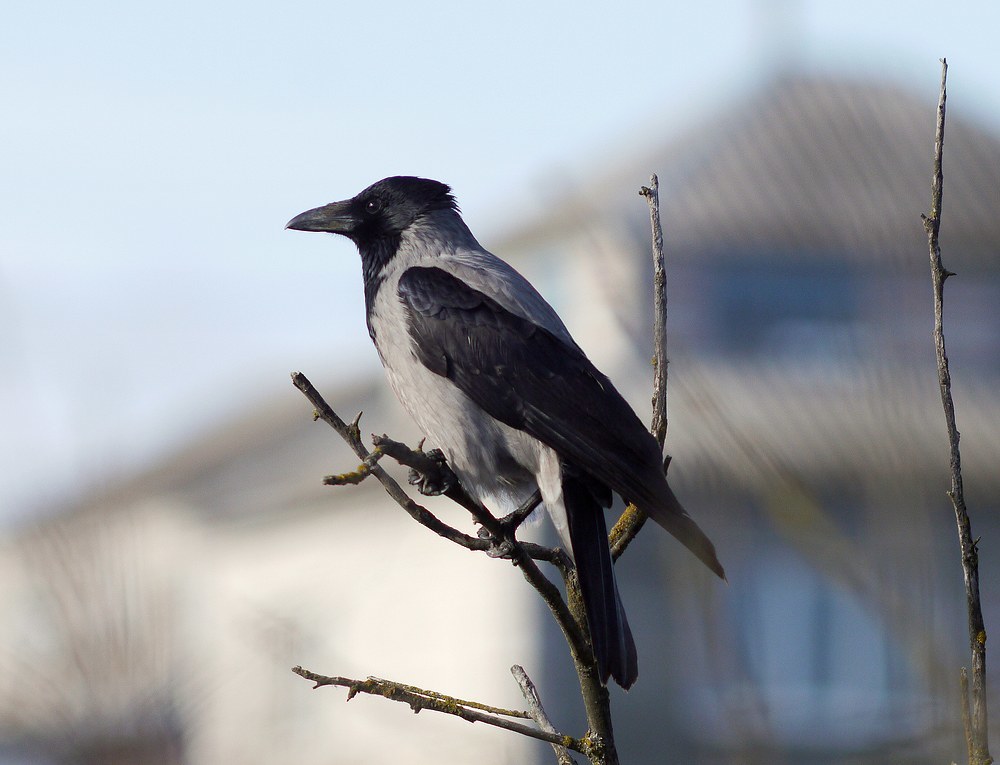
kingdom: Animalia
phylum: Chordata
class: Aves
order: Passeriformes
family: Corvidae
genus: Corvus
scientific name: Corvus cornix
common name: Hooded crow
